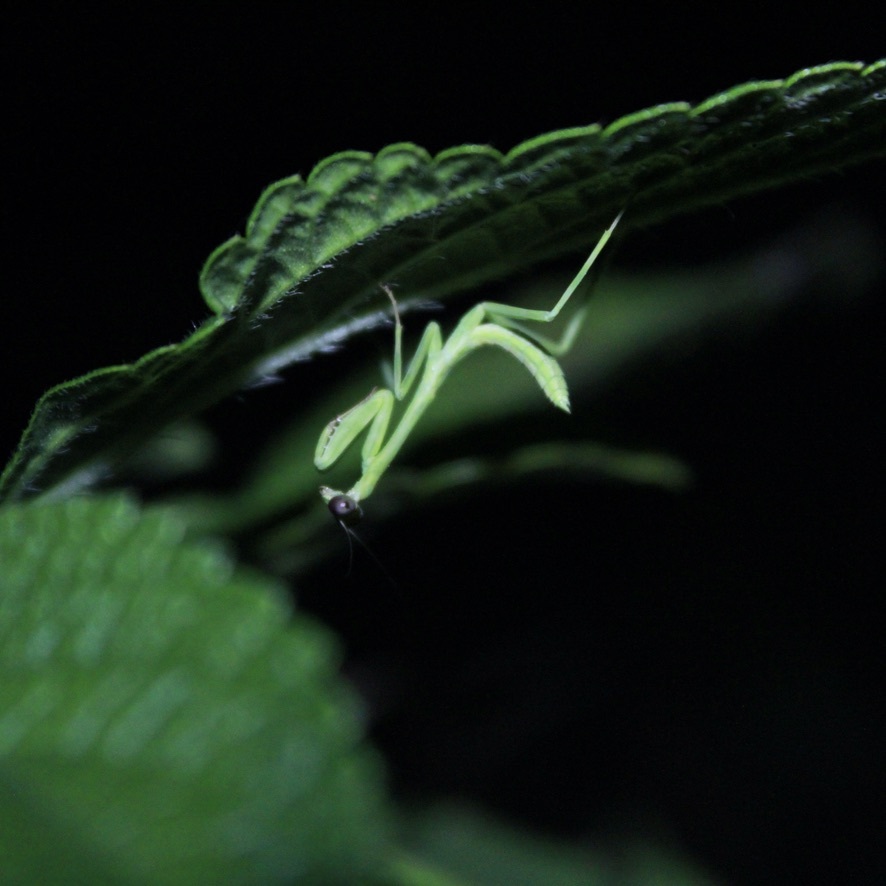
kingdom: Animalia
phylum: Arthropoda
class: Insecta
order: Mantodea
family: Mantidae
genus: Stagmatoptera
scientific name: Stagmatoptera septentrionalis
